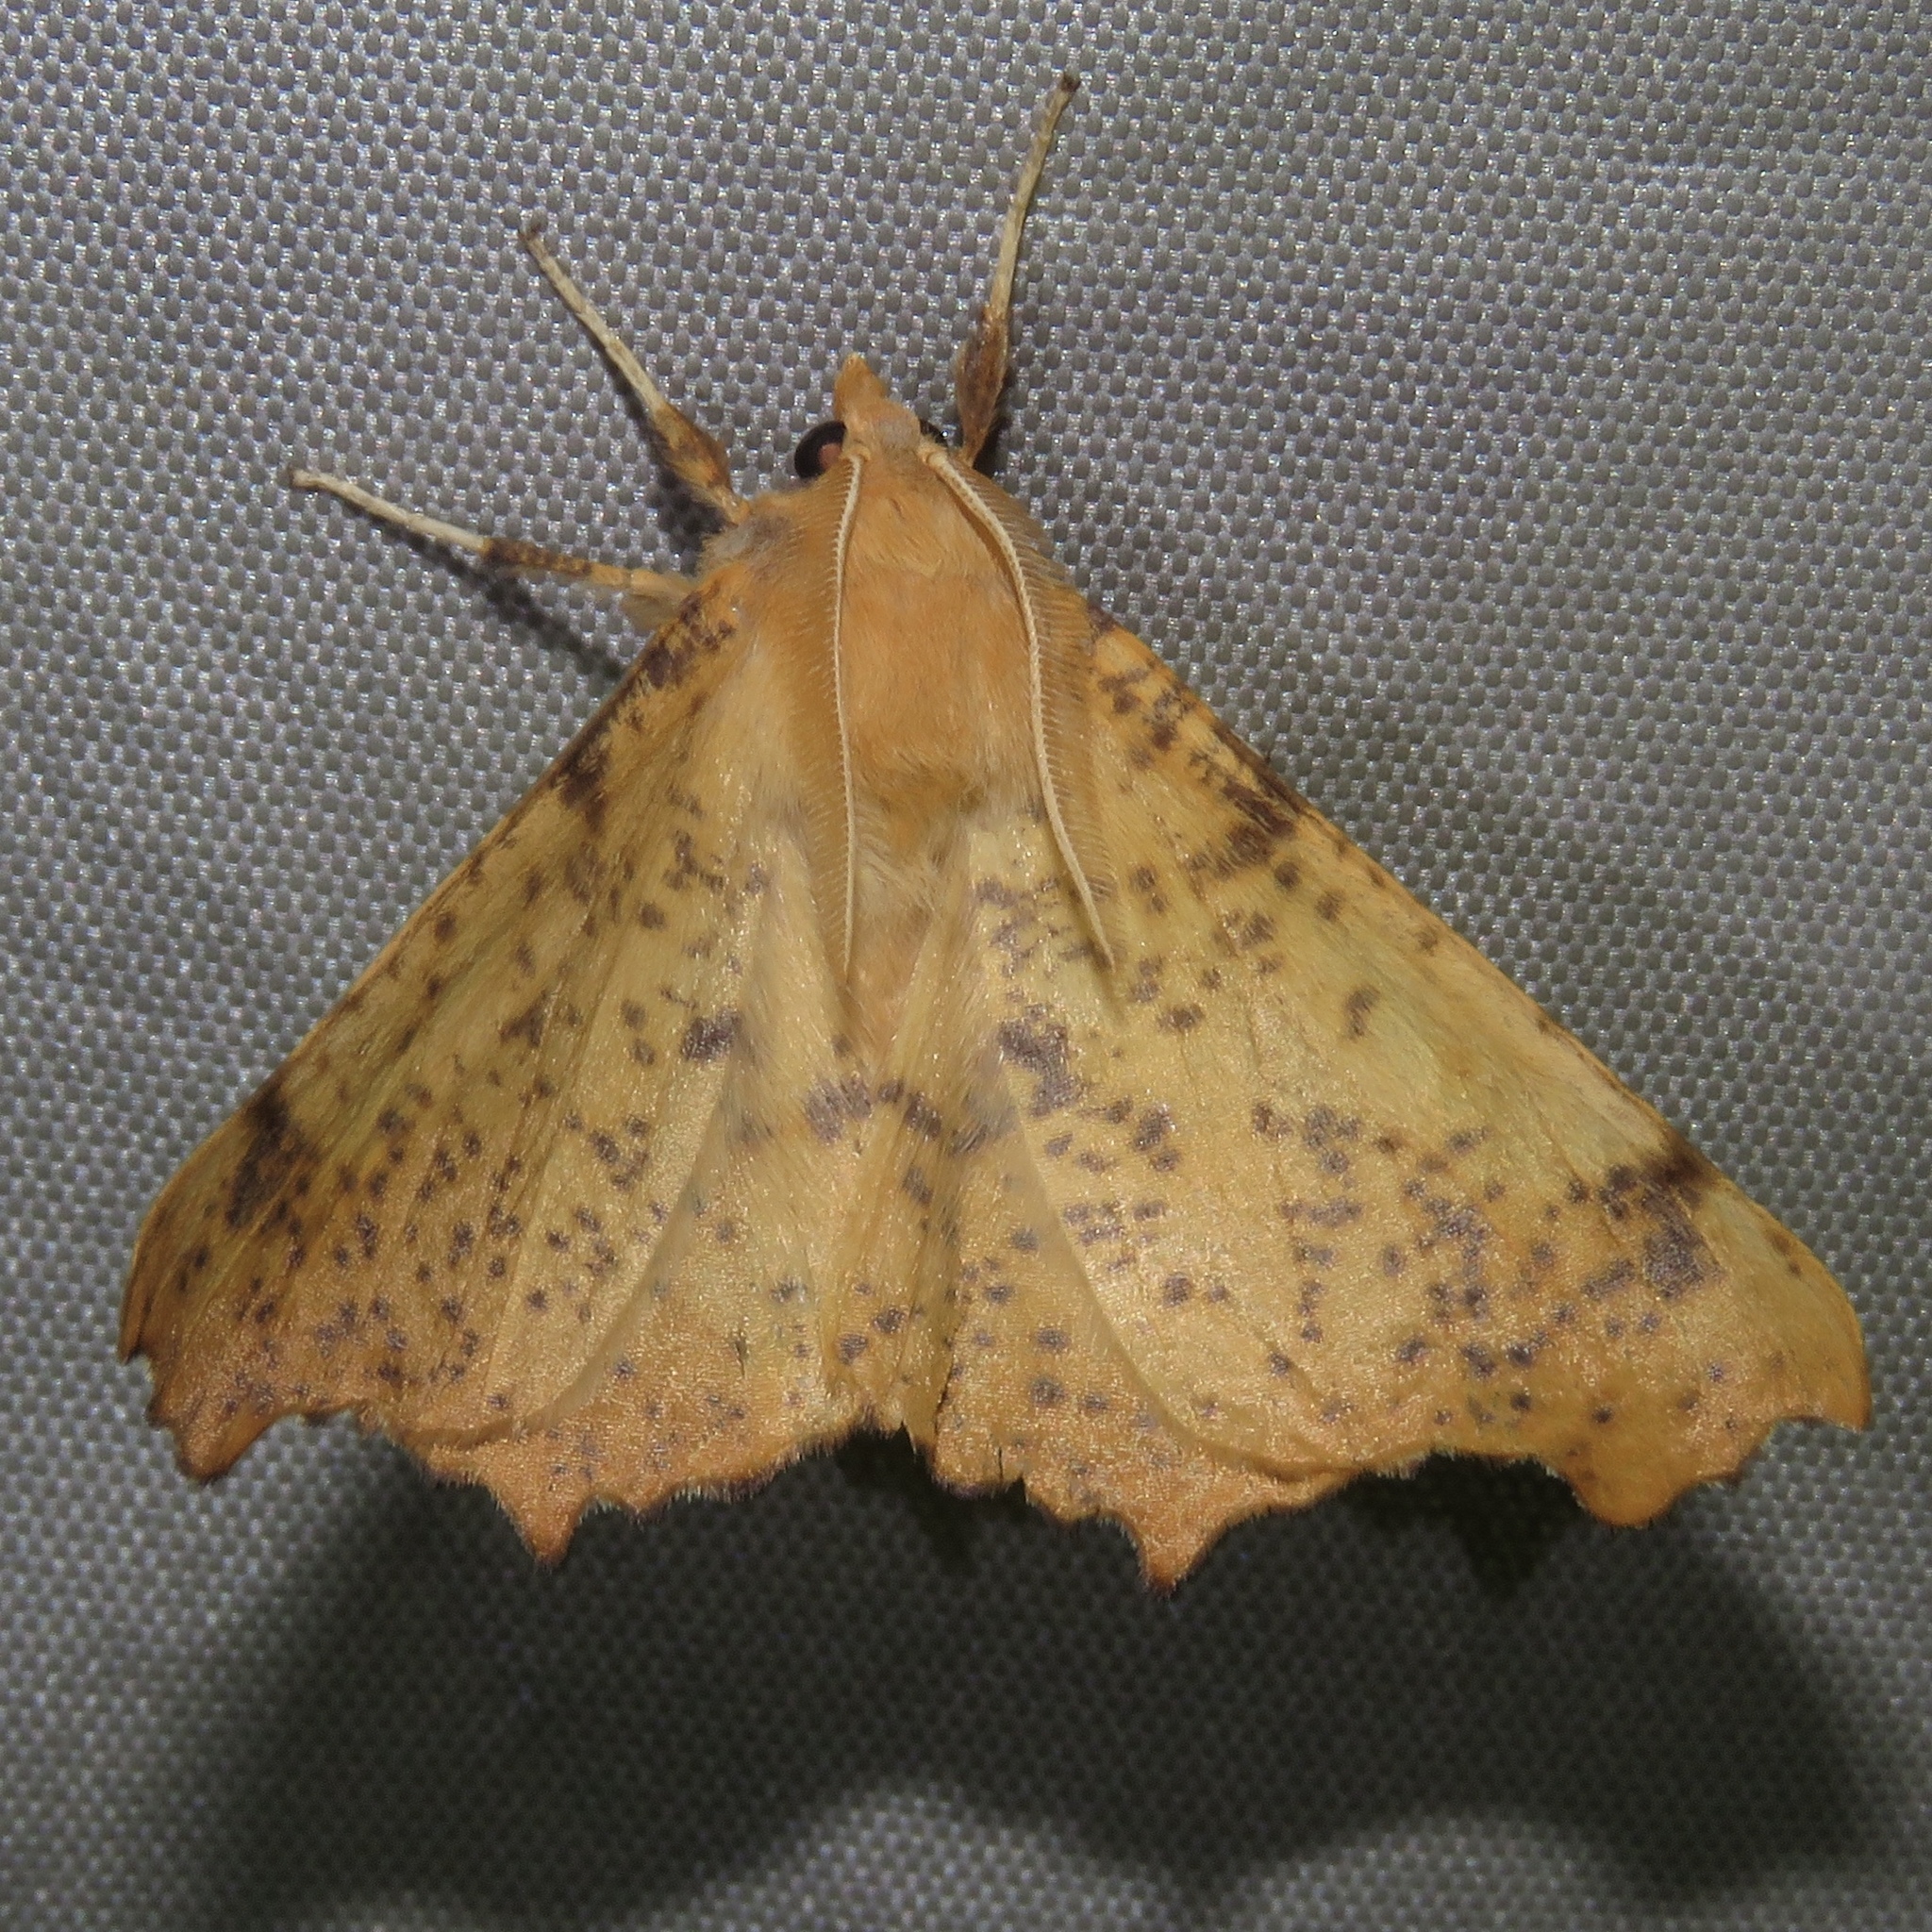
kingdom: Animalia
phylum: Arthropoda
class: Insecta
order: Lepidoptera
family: Geometridae
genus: Ennomos
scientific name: Ennomos magnaria
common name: Maple spanworm
